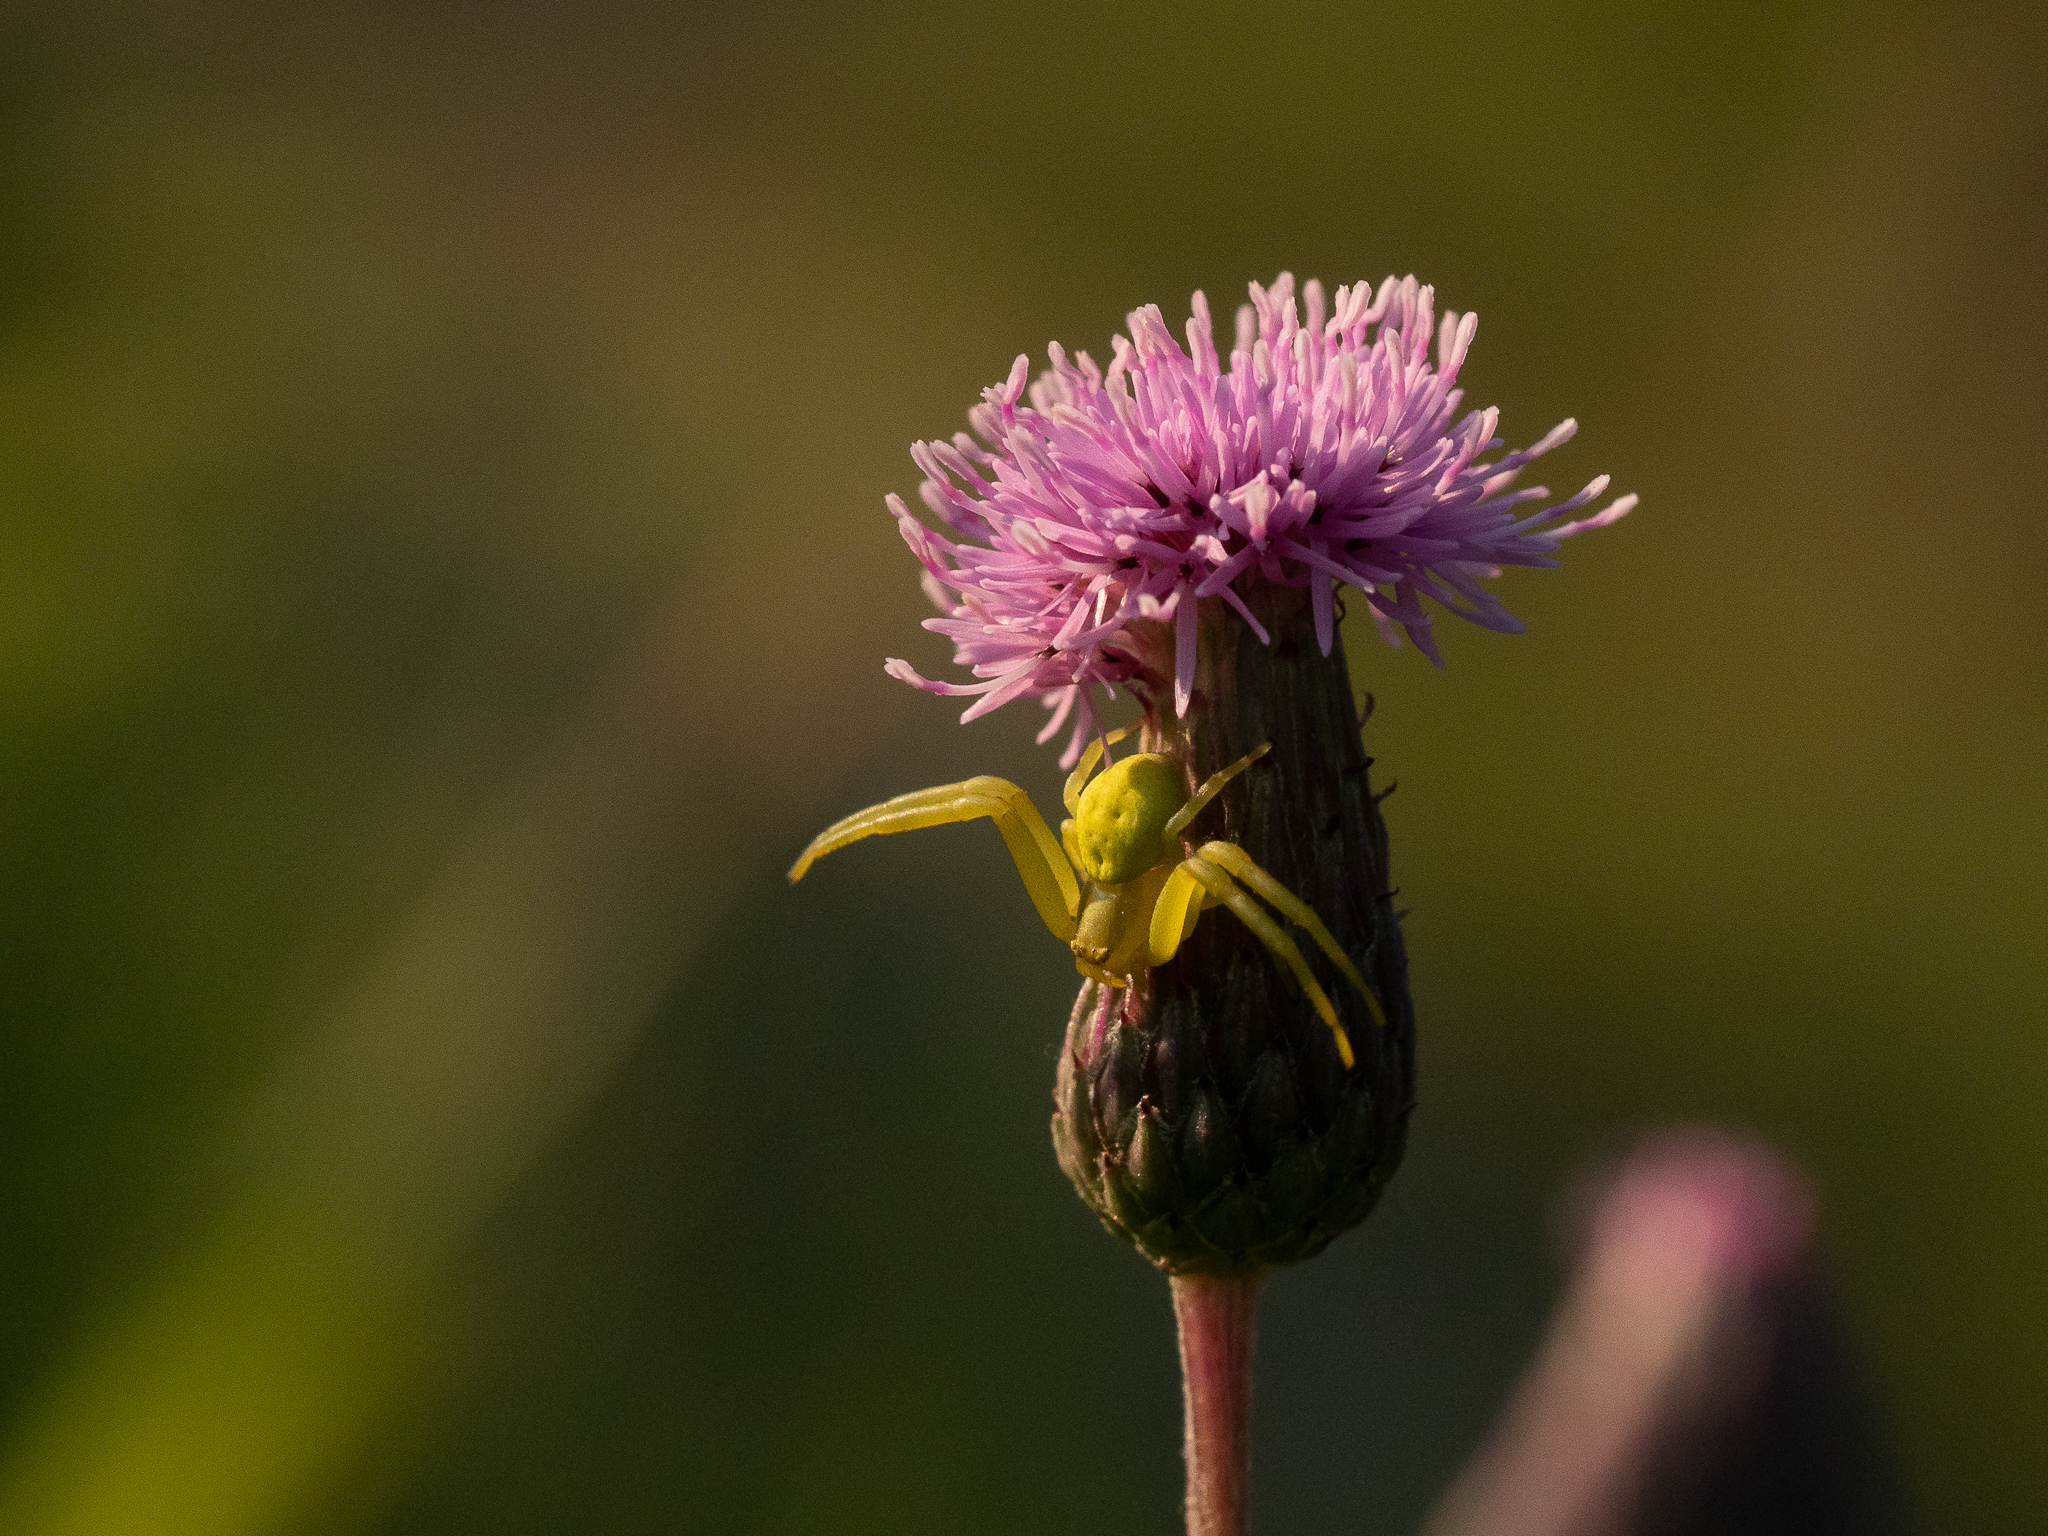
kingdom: Animalia
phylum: Arthropoda
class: Arachnida
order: Araneae
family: Thomisidae
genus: Misumena
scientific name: Misumena vatia
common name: Goldenrod crab spider
